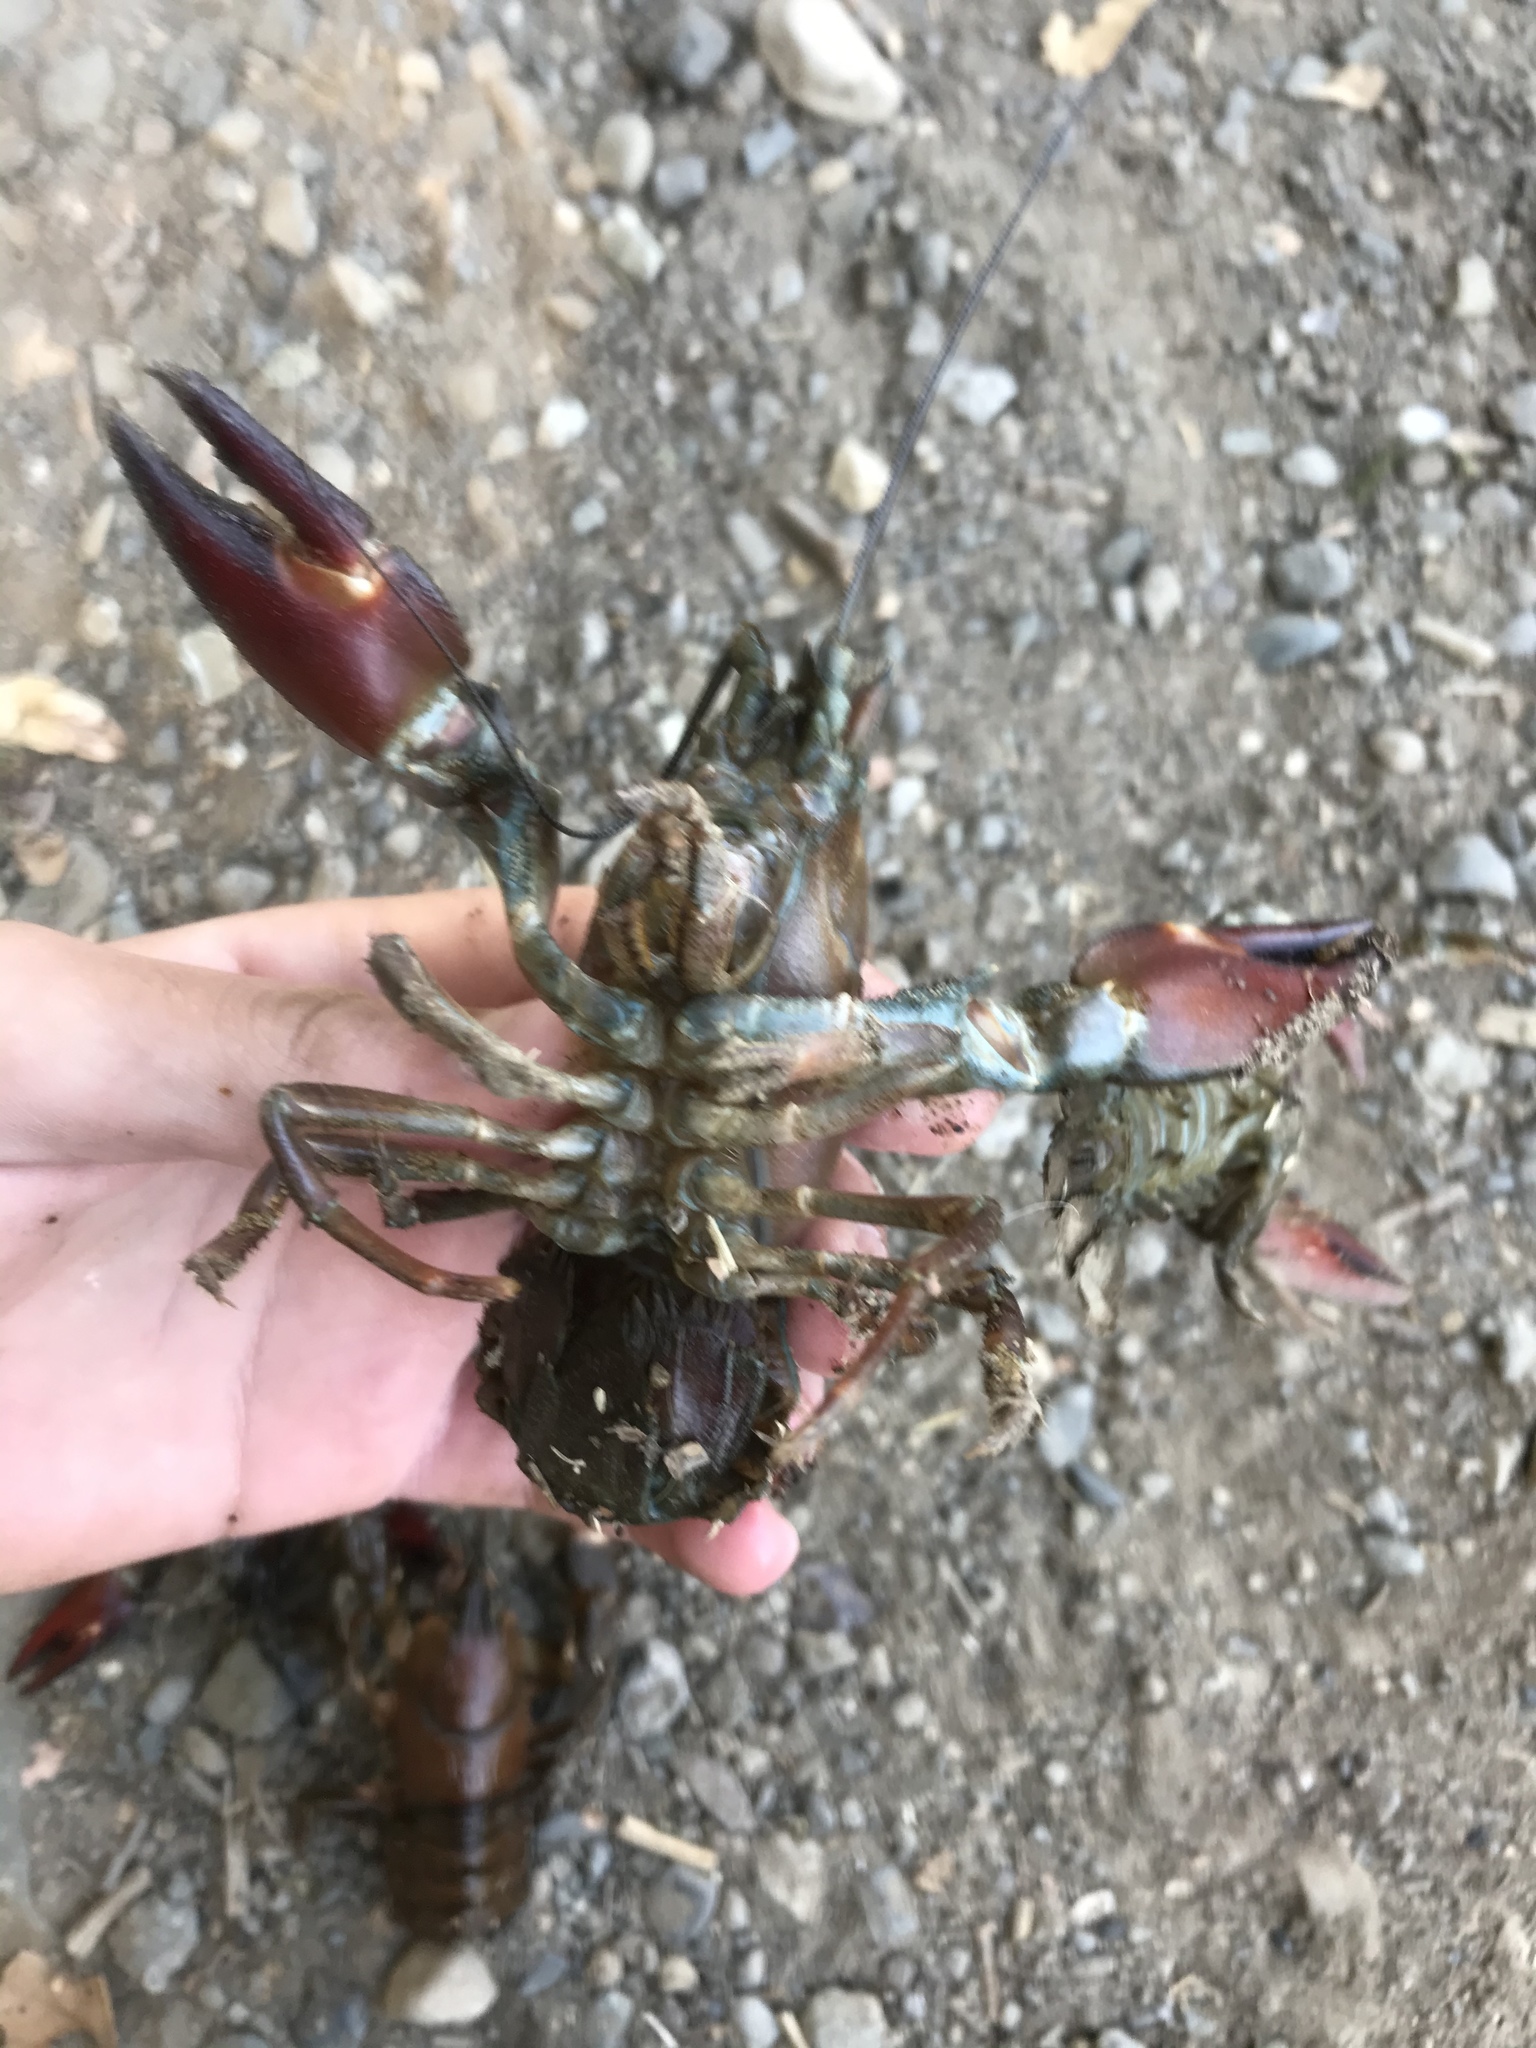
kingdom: Animalia
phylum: Arthropoda
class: Malacostraca
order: Decapoda
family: Astacidae
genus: Pacifastacus
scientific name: Pacifastacus leniusculus
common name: Signal crayfish
